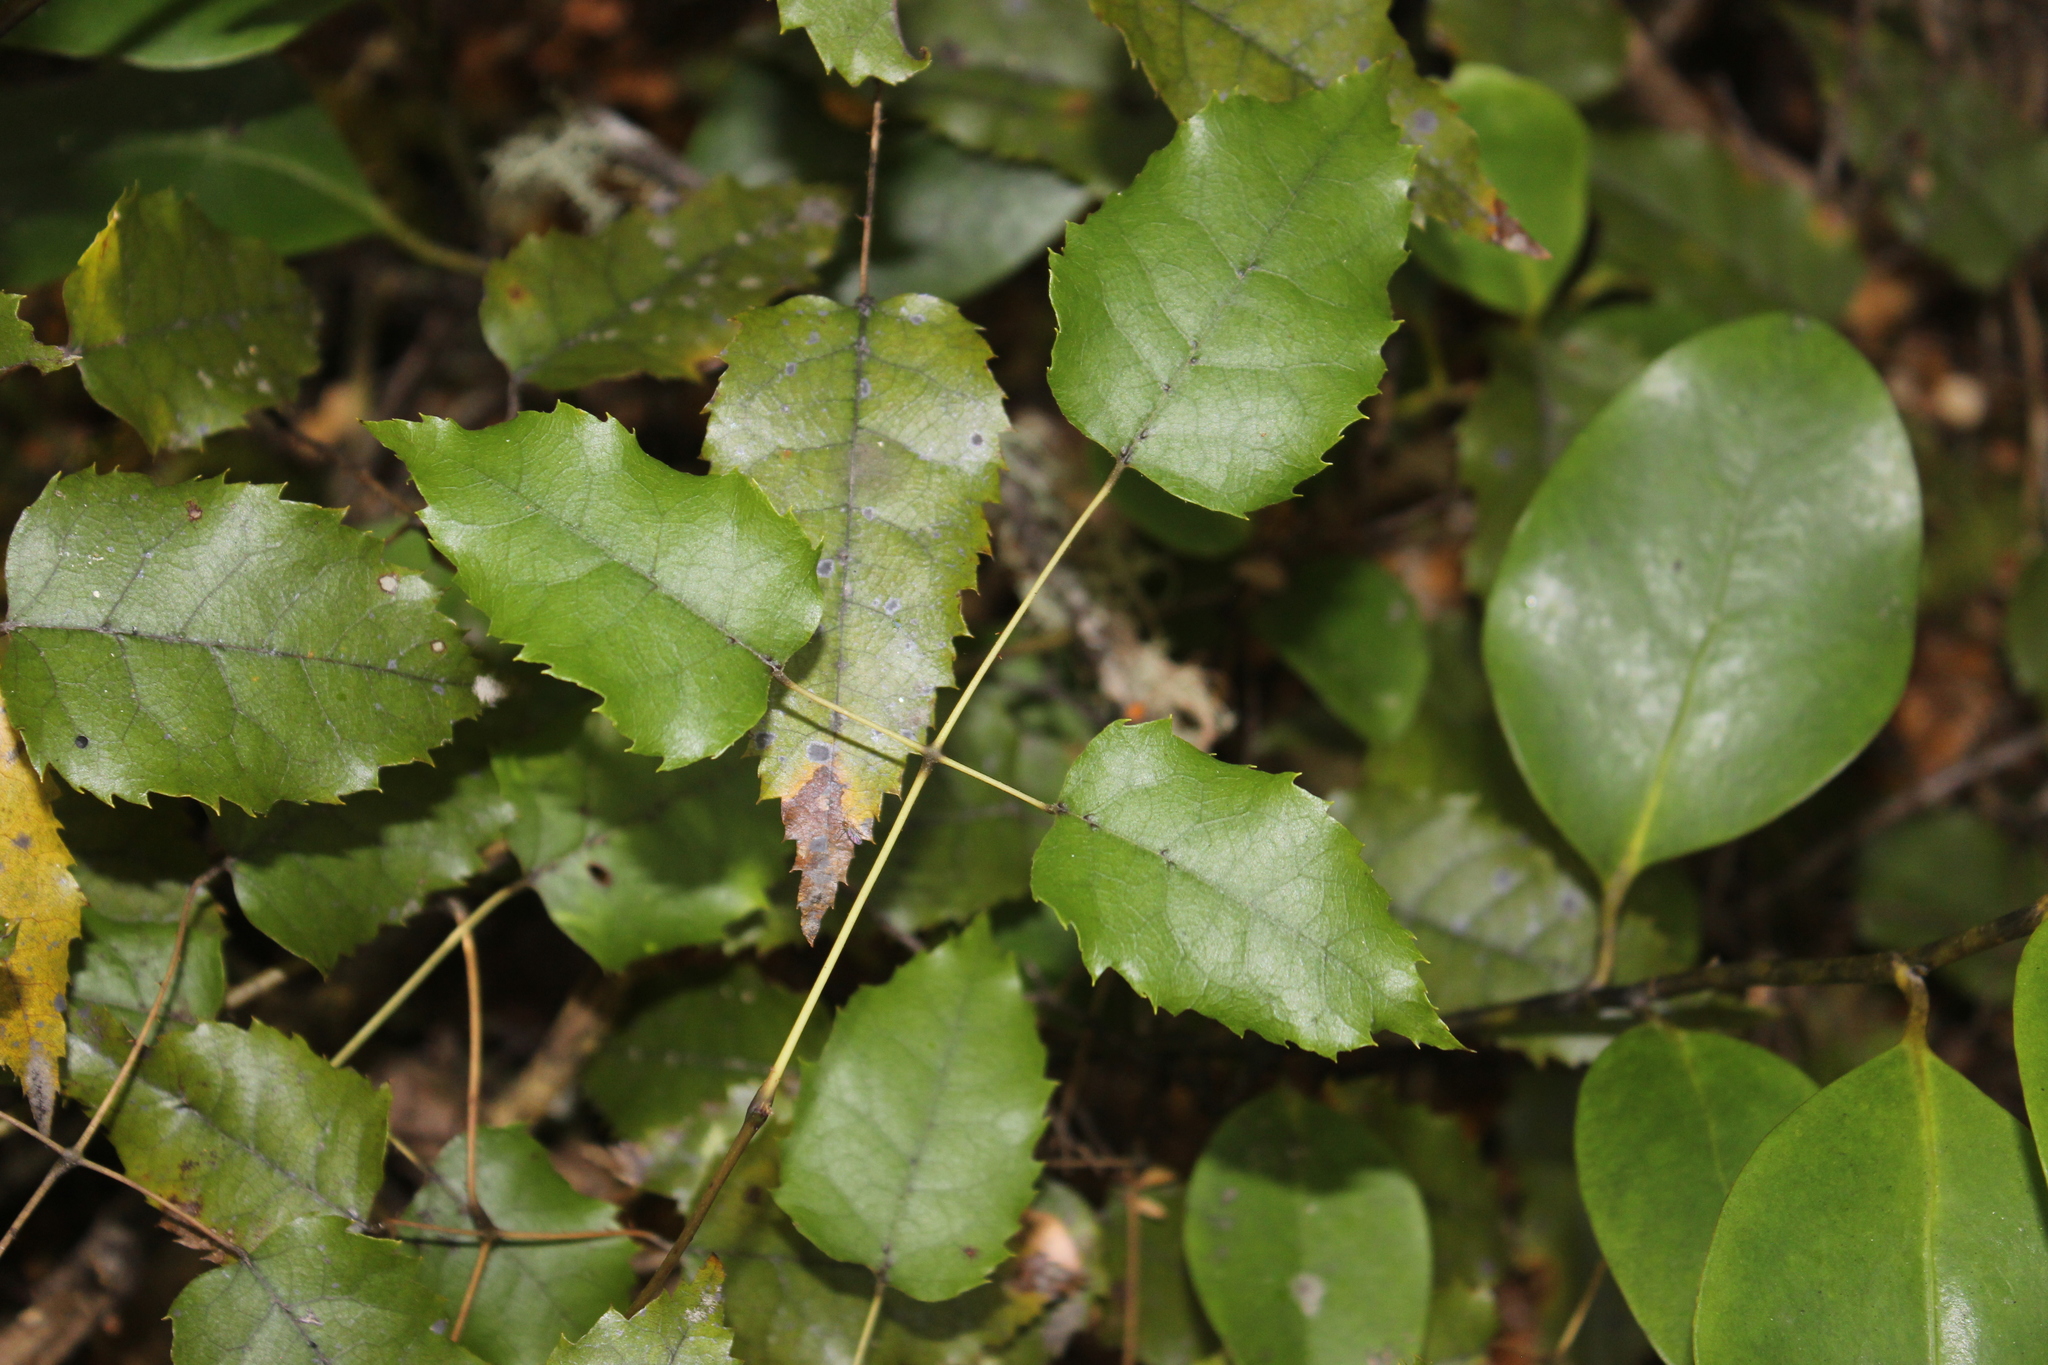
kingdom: Plantae
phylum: Tracheophyta
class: Magnoliopsida
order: Rosales
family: Rosaceae
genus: Rubus
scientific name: Rubus cissoides
